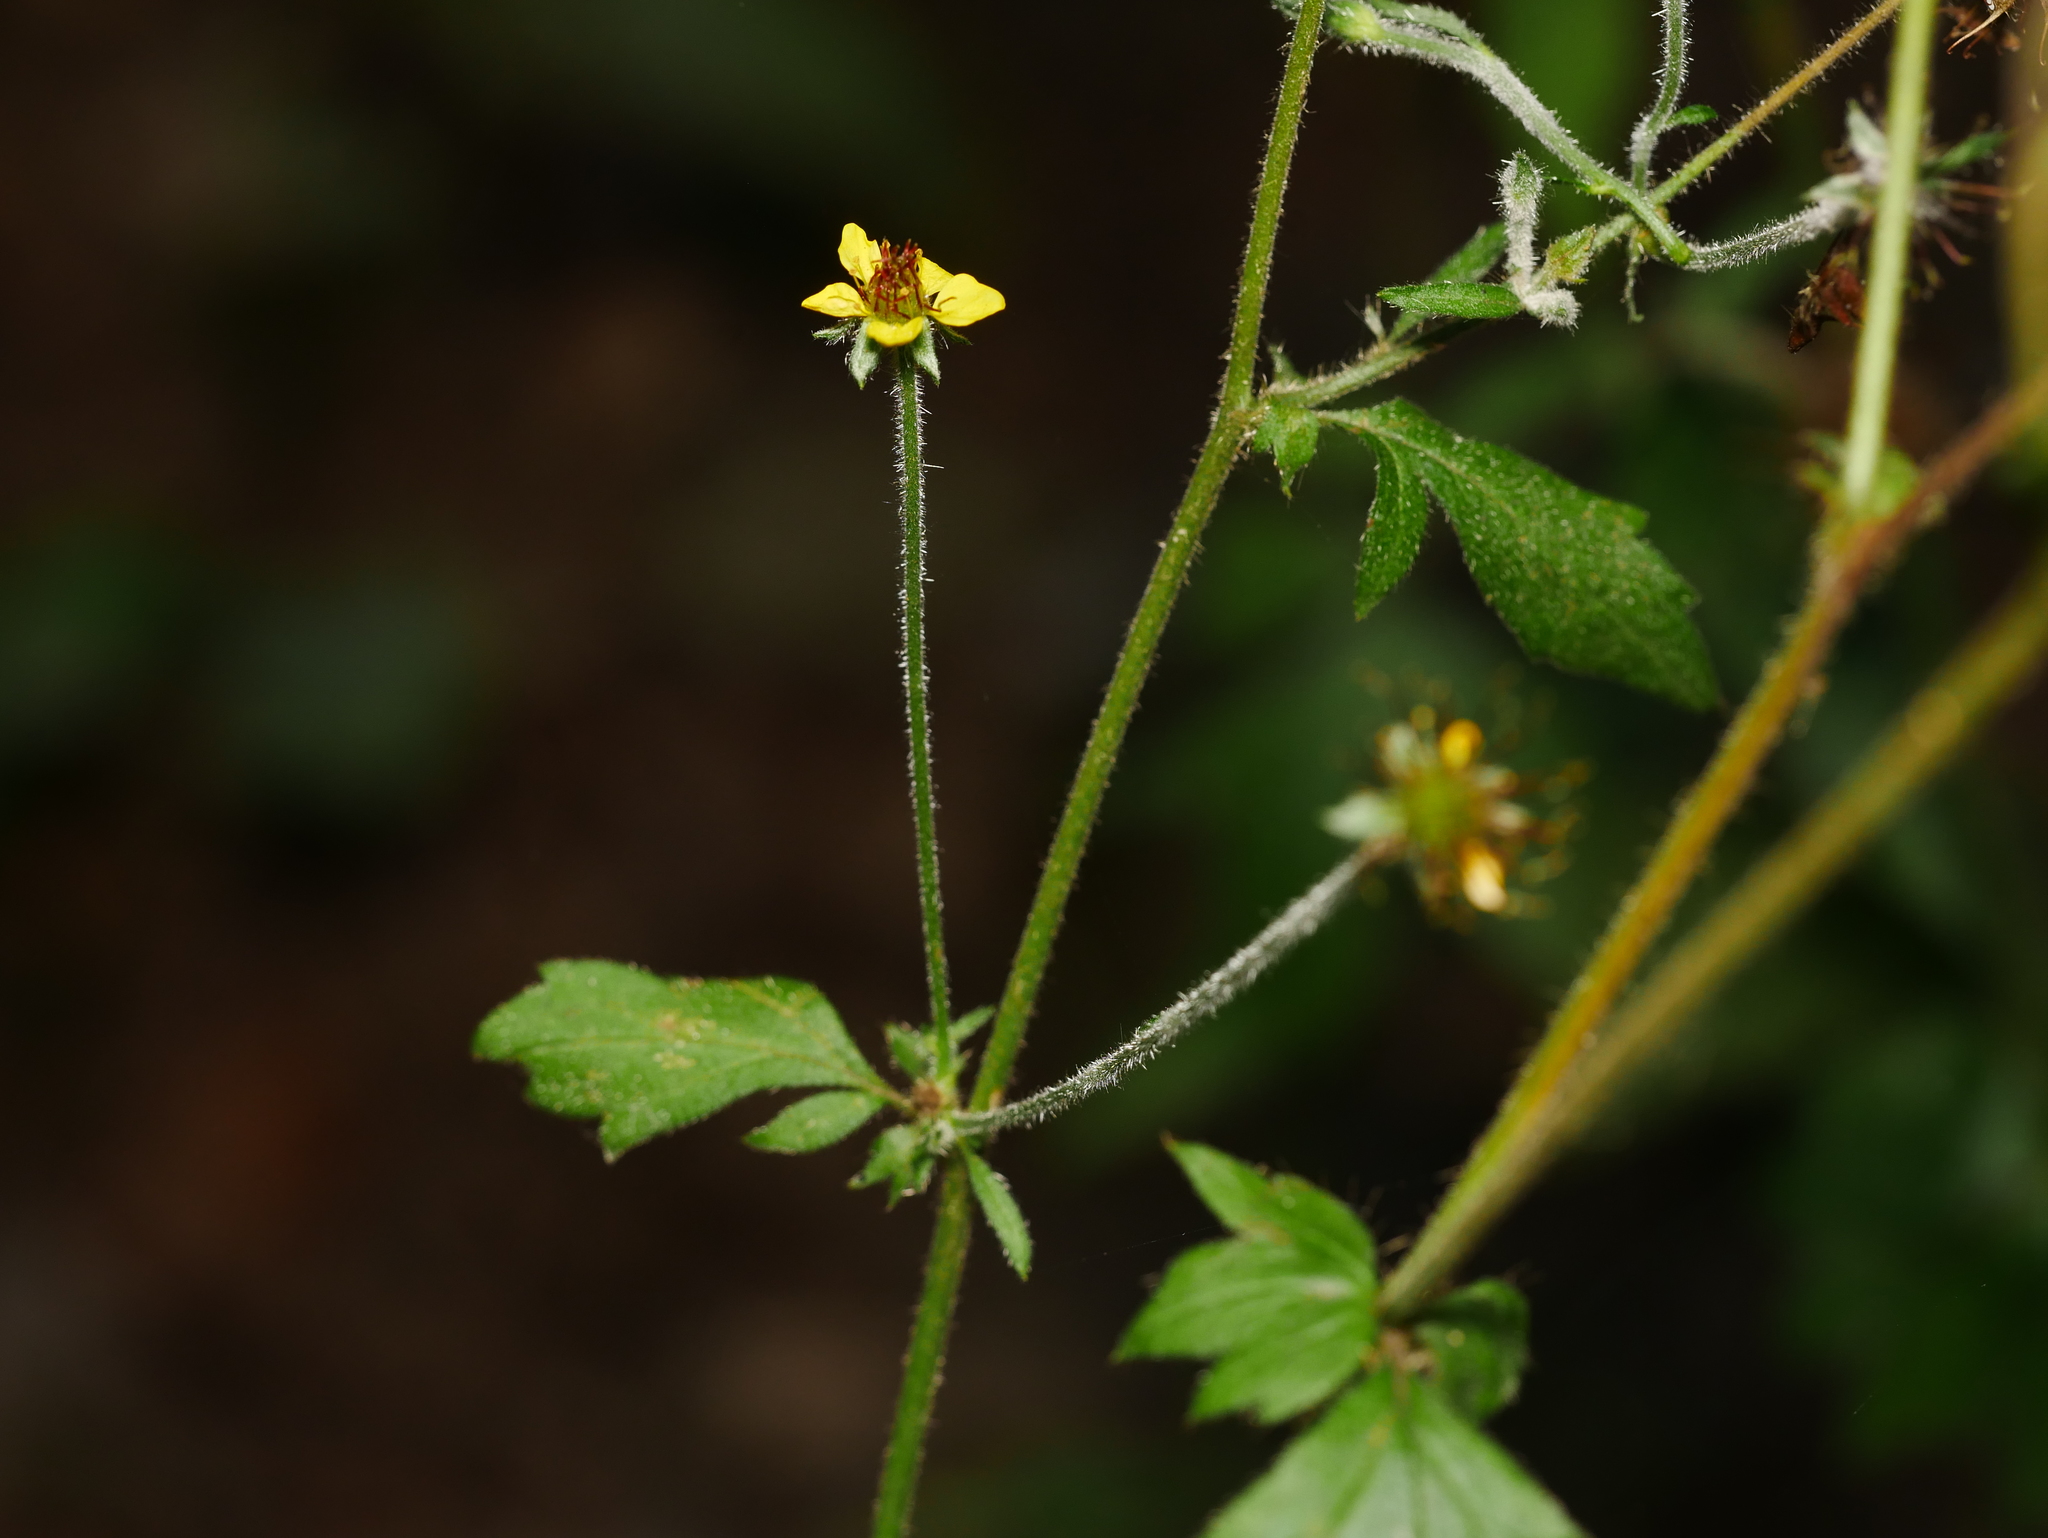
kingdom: Plantae
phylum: Tracheophyta
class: Magnoliopsida
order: Rosales
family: Rosaceae
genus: Geum
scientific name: Geum urbanum
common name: Wood avens
